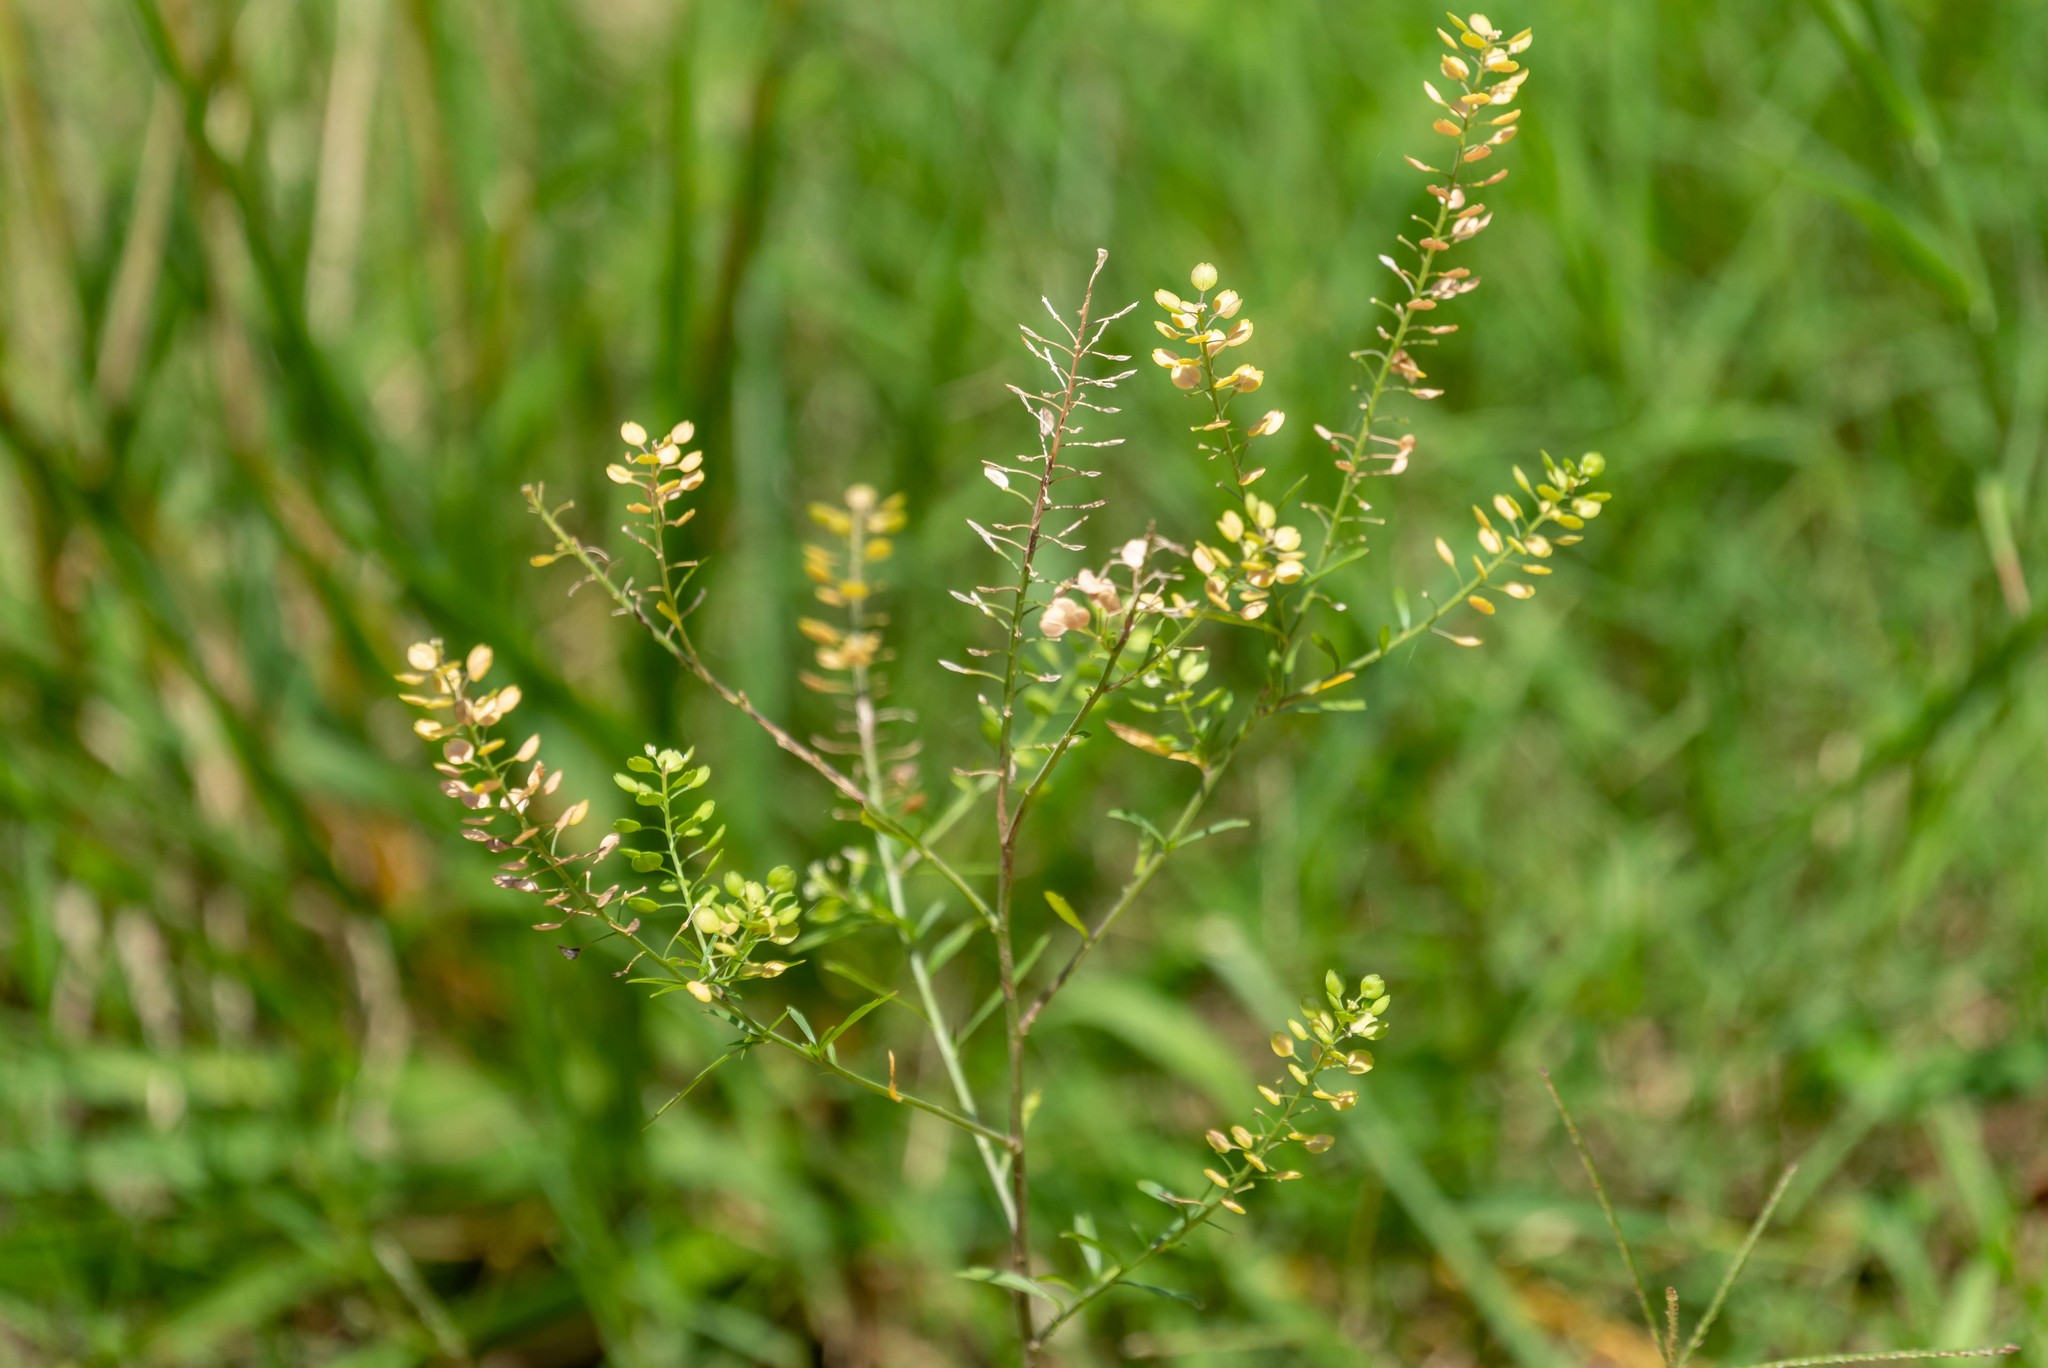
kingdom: Plantae
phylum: Tracheophyta
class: Magnoliopsida
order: Brassicales
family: Brassicaceae
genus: Lepidium
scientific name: Lepidium virginicum
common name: Least pepperwort
